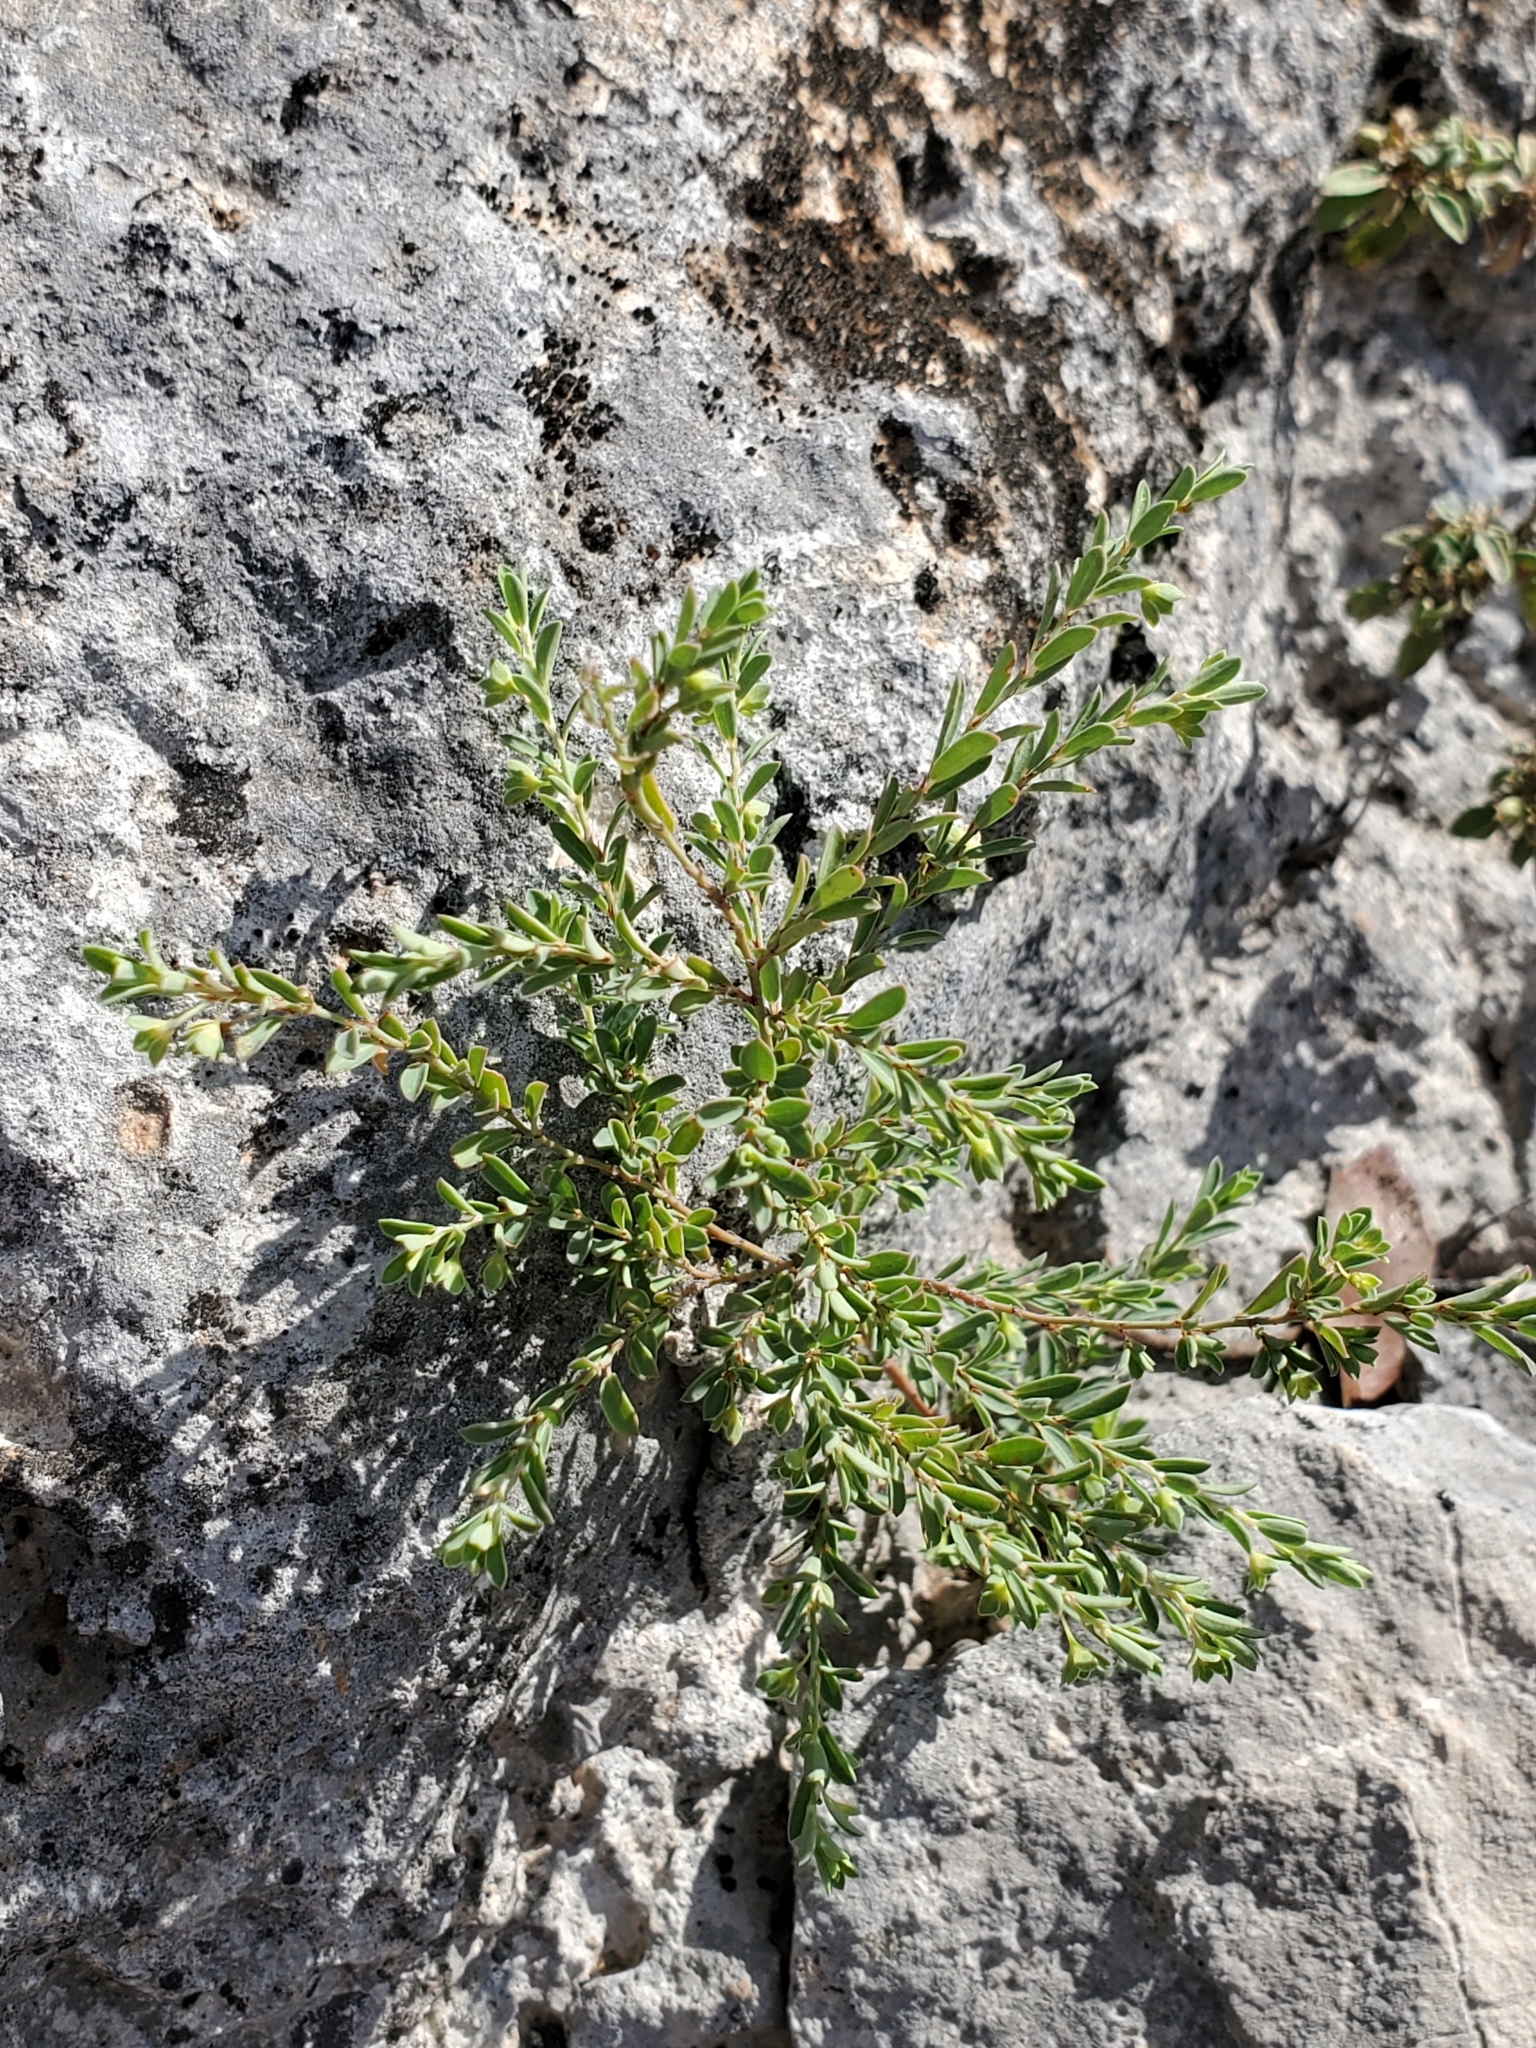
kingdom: Plantae
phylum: Tracheophyta
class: Magnoliopsida
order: Malpighiales
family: Phyllanthaceae
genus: Phyllanthus
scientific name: Phyllanthus polygonoides
